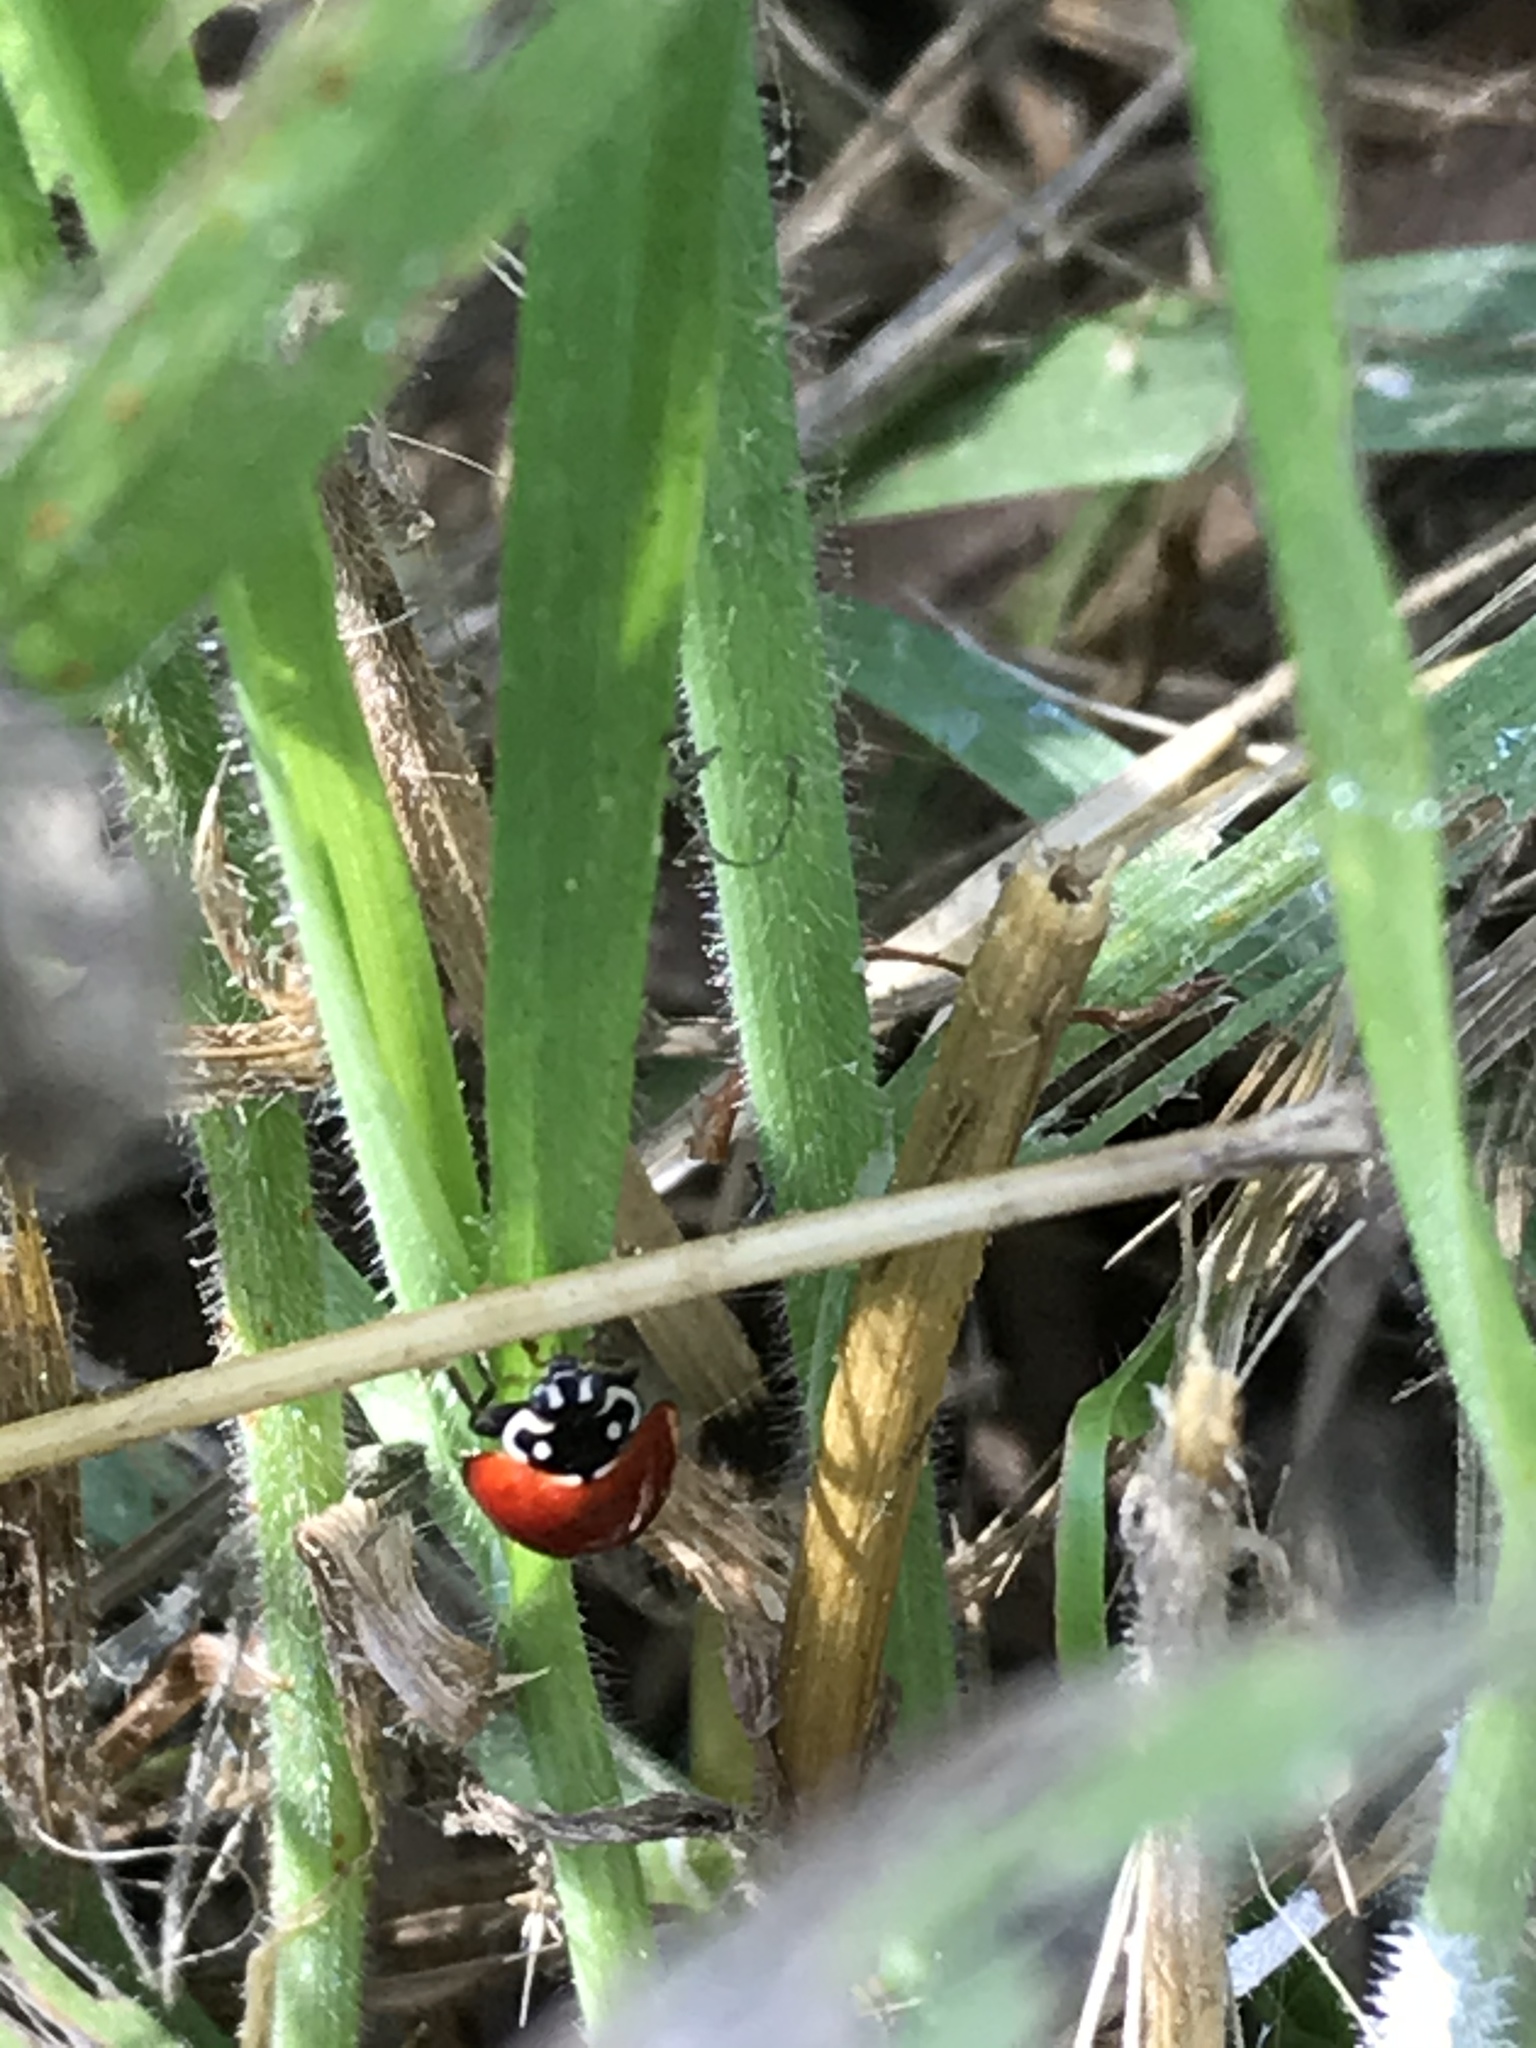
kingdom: Animalia
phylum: Arthropoda
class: Insecta
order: Coleoptera
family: Coccinellidae
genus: Cycloneda
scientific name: Cycloneda sanguinea
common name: Ladybird beetle
